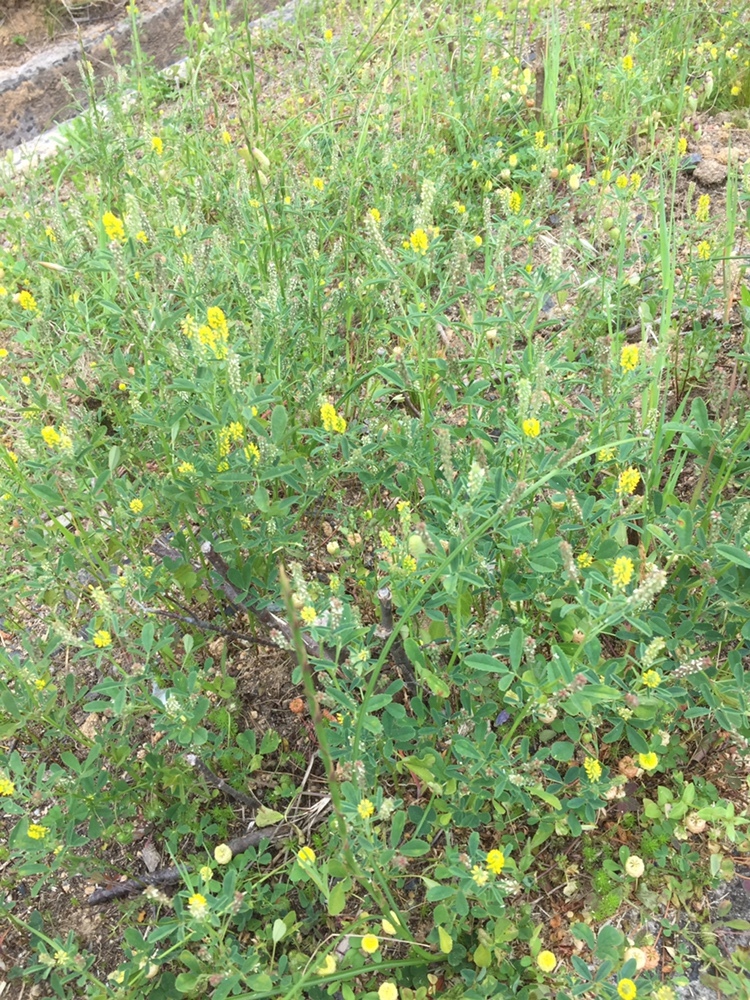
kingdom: Plantae
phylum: Tracheophyta
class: Magnoliopsida
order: Fabales
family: Fabaceae
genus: Melilotus
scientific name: Melilotus indicus
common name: Small melilot
